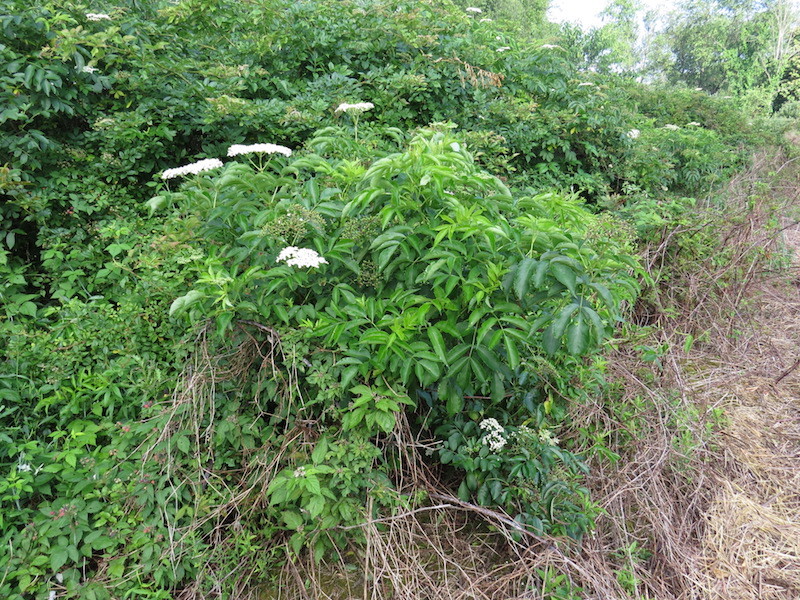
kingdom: Plantae
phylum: Tracheophyta
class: Magnoliopsida
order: Dipsacales
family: Viburnaceae
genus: Sambucus
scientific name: Sambucus canadensis
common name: American elder
